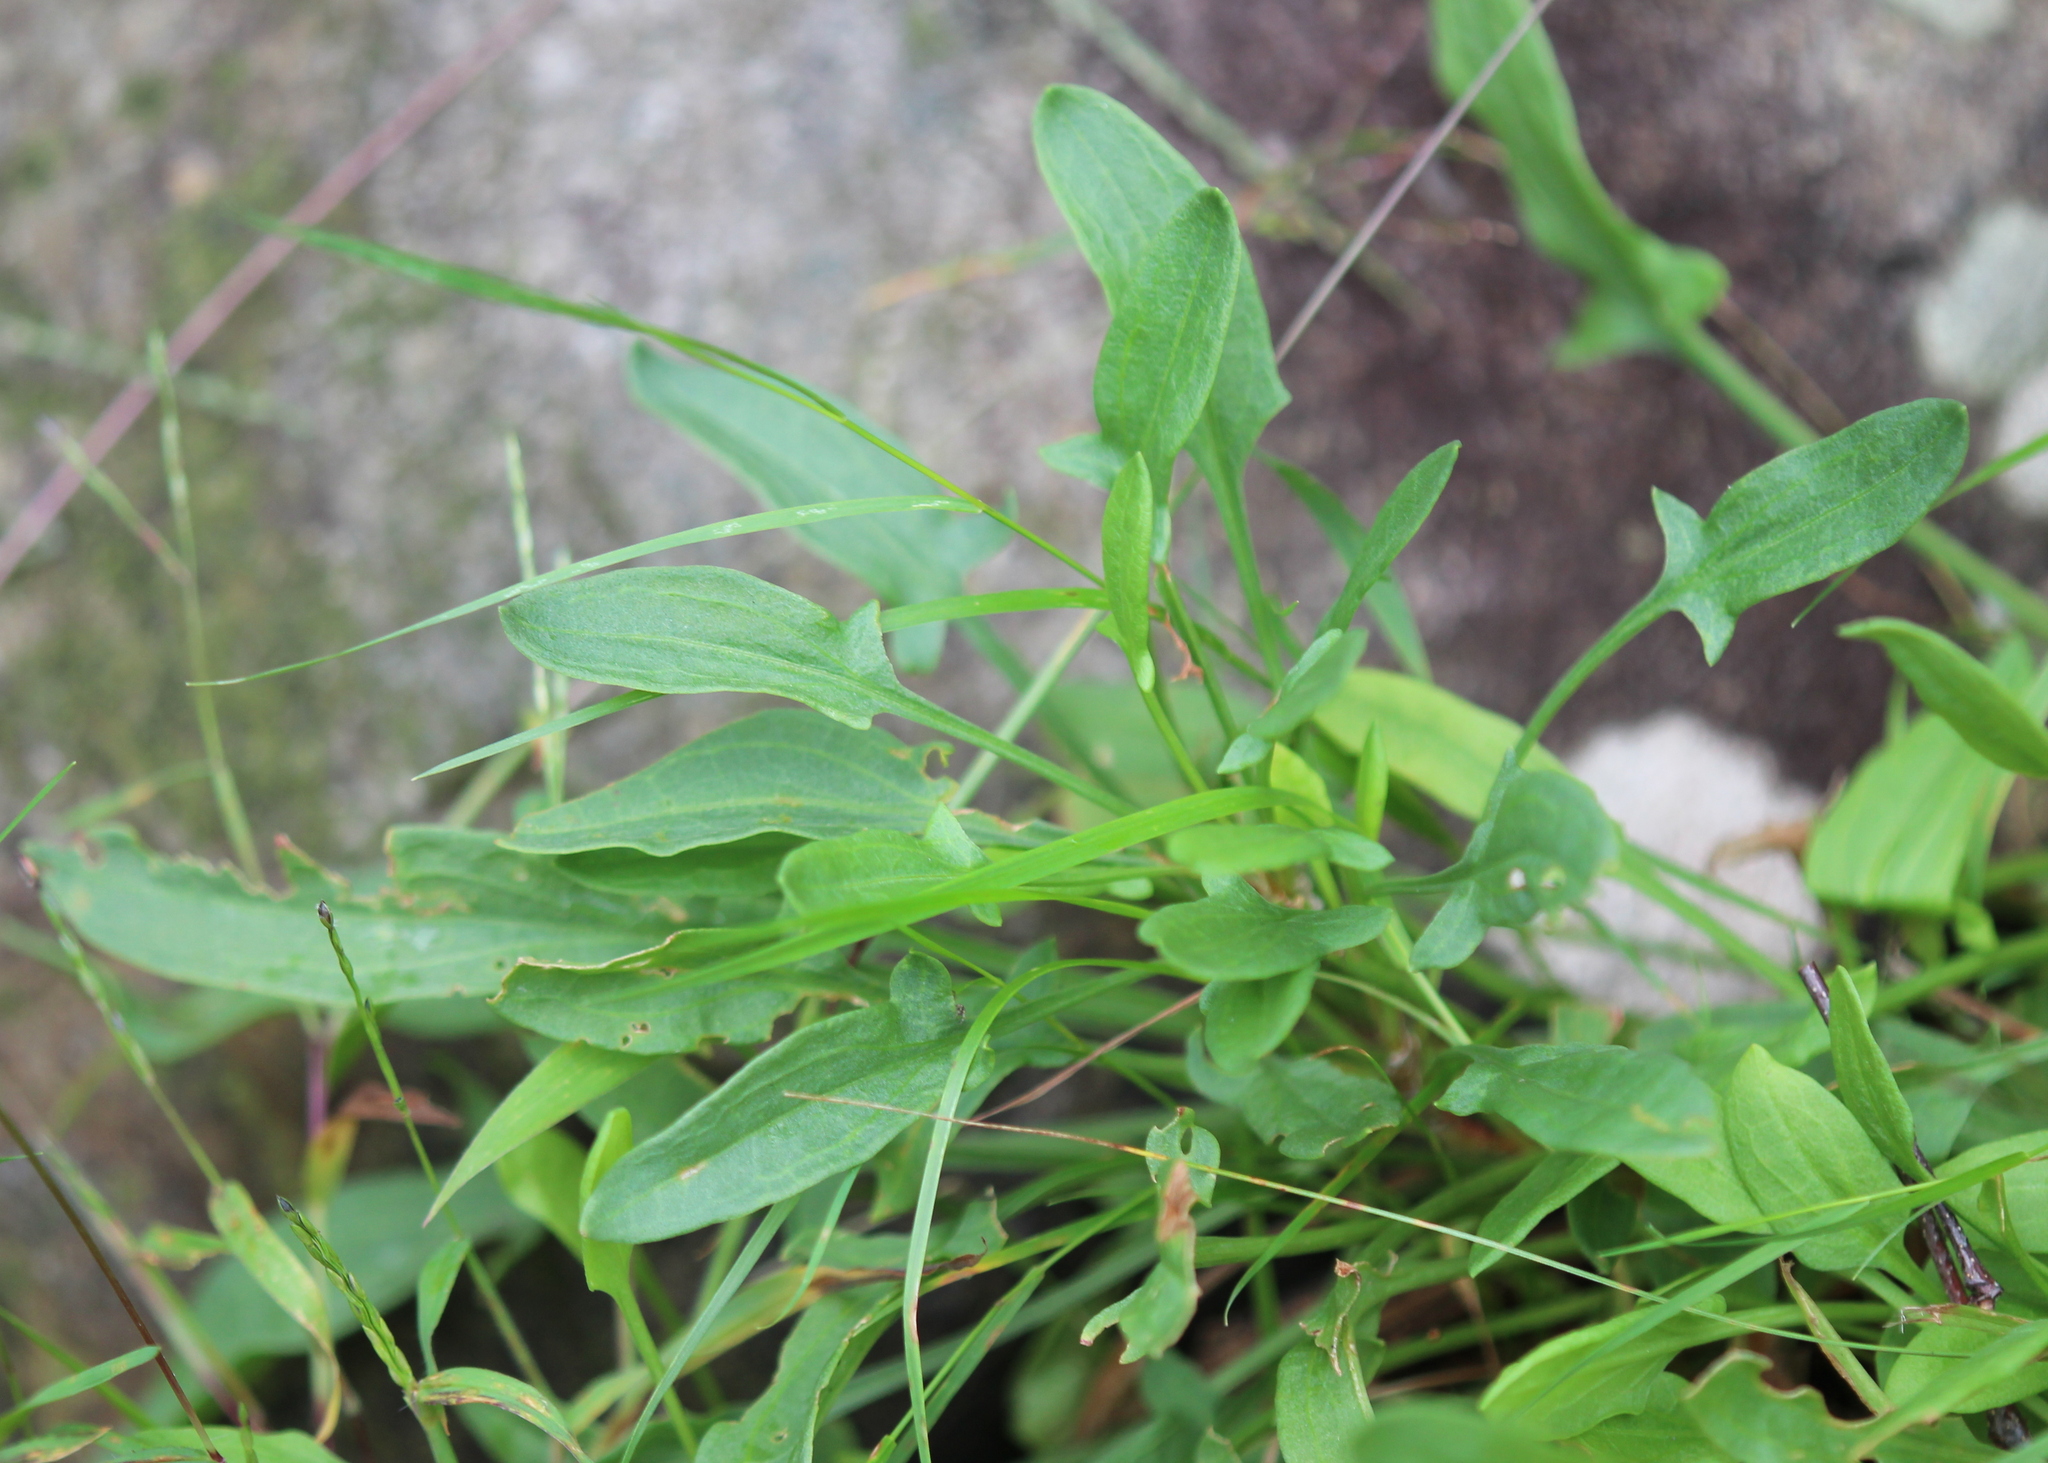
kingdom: Plantae
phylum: Tracheophyta
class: Magnoliopsida
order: Caryophyllales
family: Polygonaceae
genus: Rumex
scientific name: Rumex acetosella
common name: Common sheep sorrel
